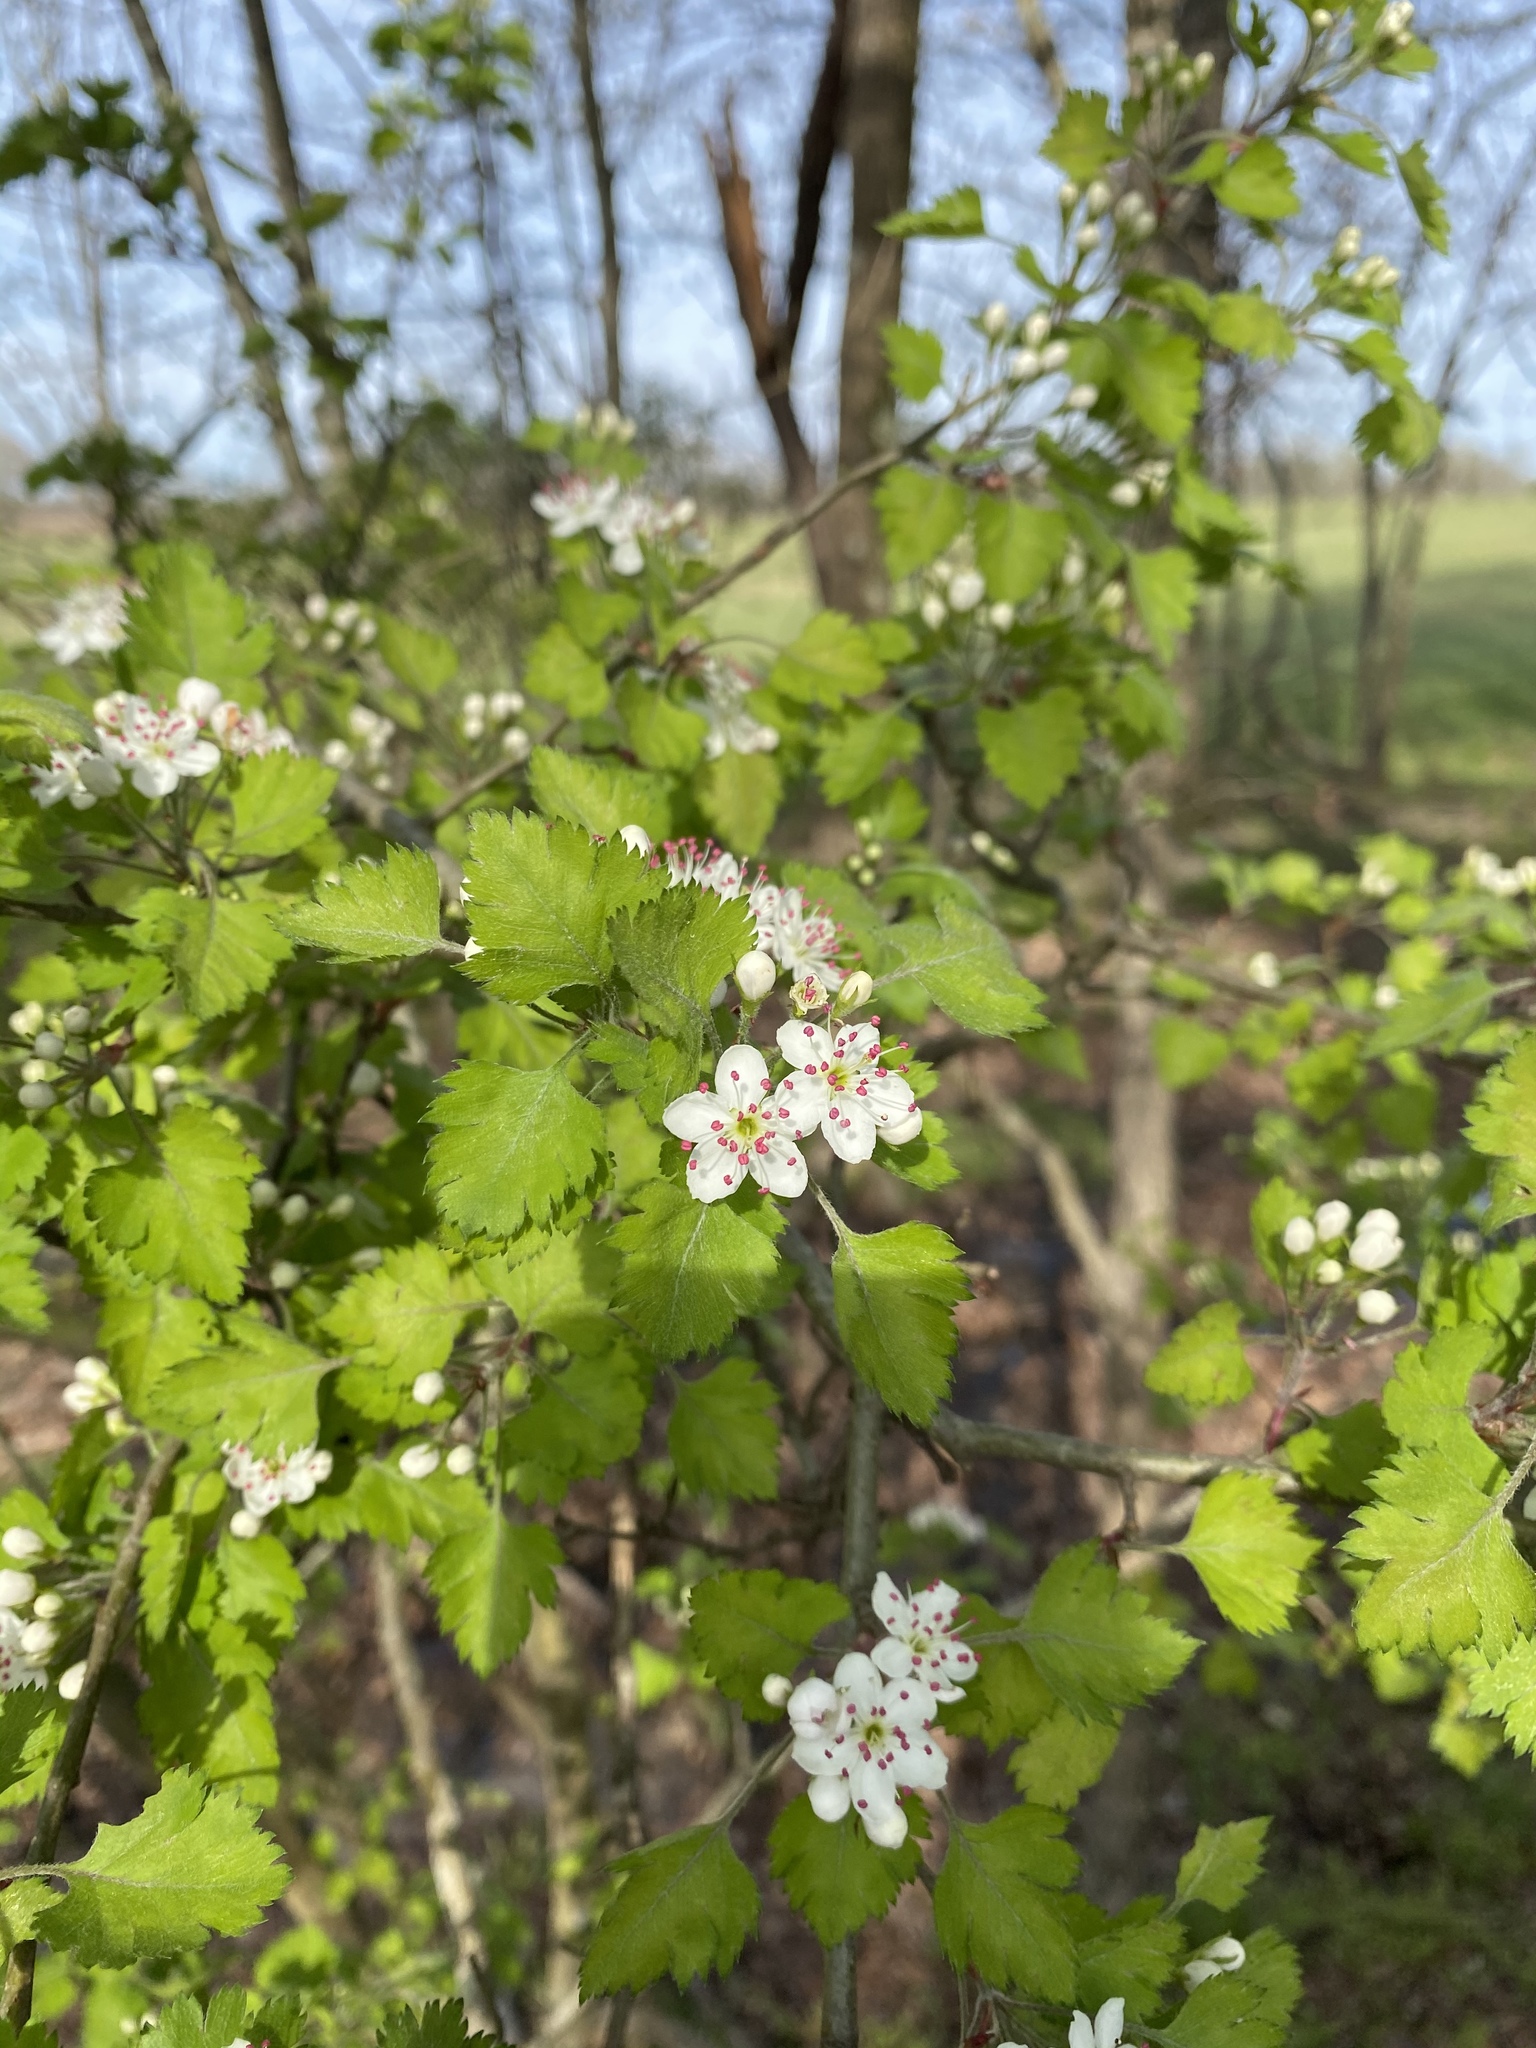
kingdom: Plantae
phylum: Tracheophyta
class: Magnoliopsida
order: Rosales
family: Rosaceae
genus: Crataegus
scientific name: Crataegus marshallii
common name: Parsley-hawthorn
